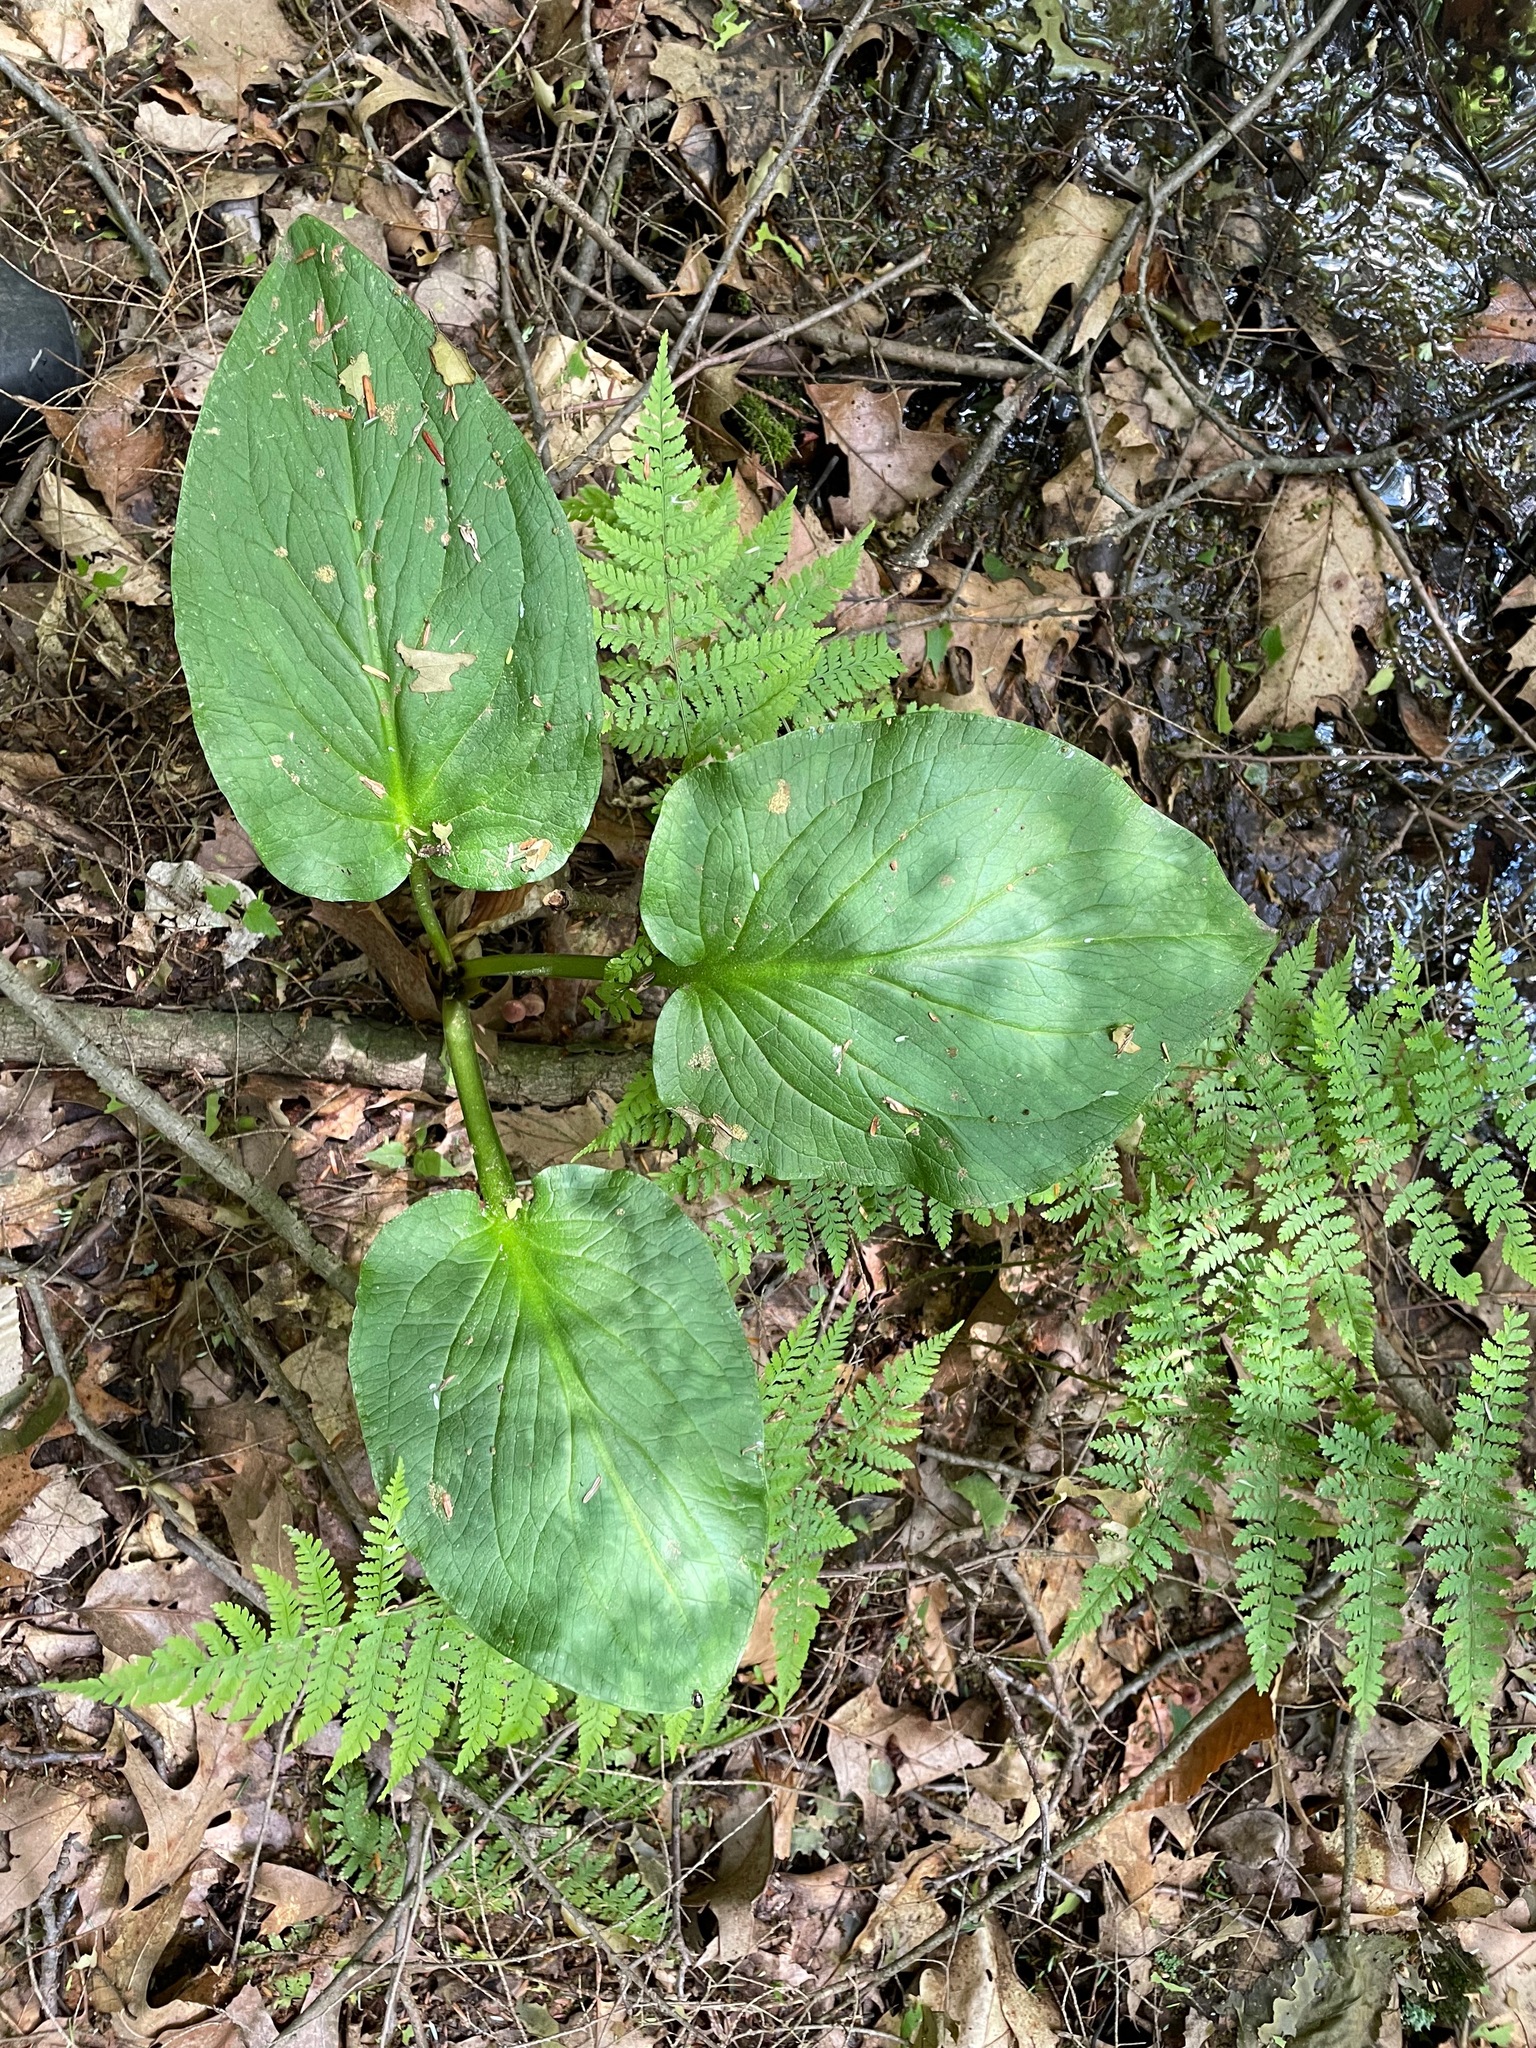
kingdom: Plantae
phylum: Tracheophyta
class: Liliopsida
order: Alismatales
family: Araceae
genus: Symplocarpus
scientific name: Symplocarpus foetidus
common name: Eastern skunk cabbage
